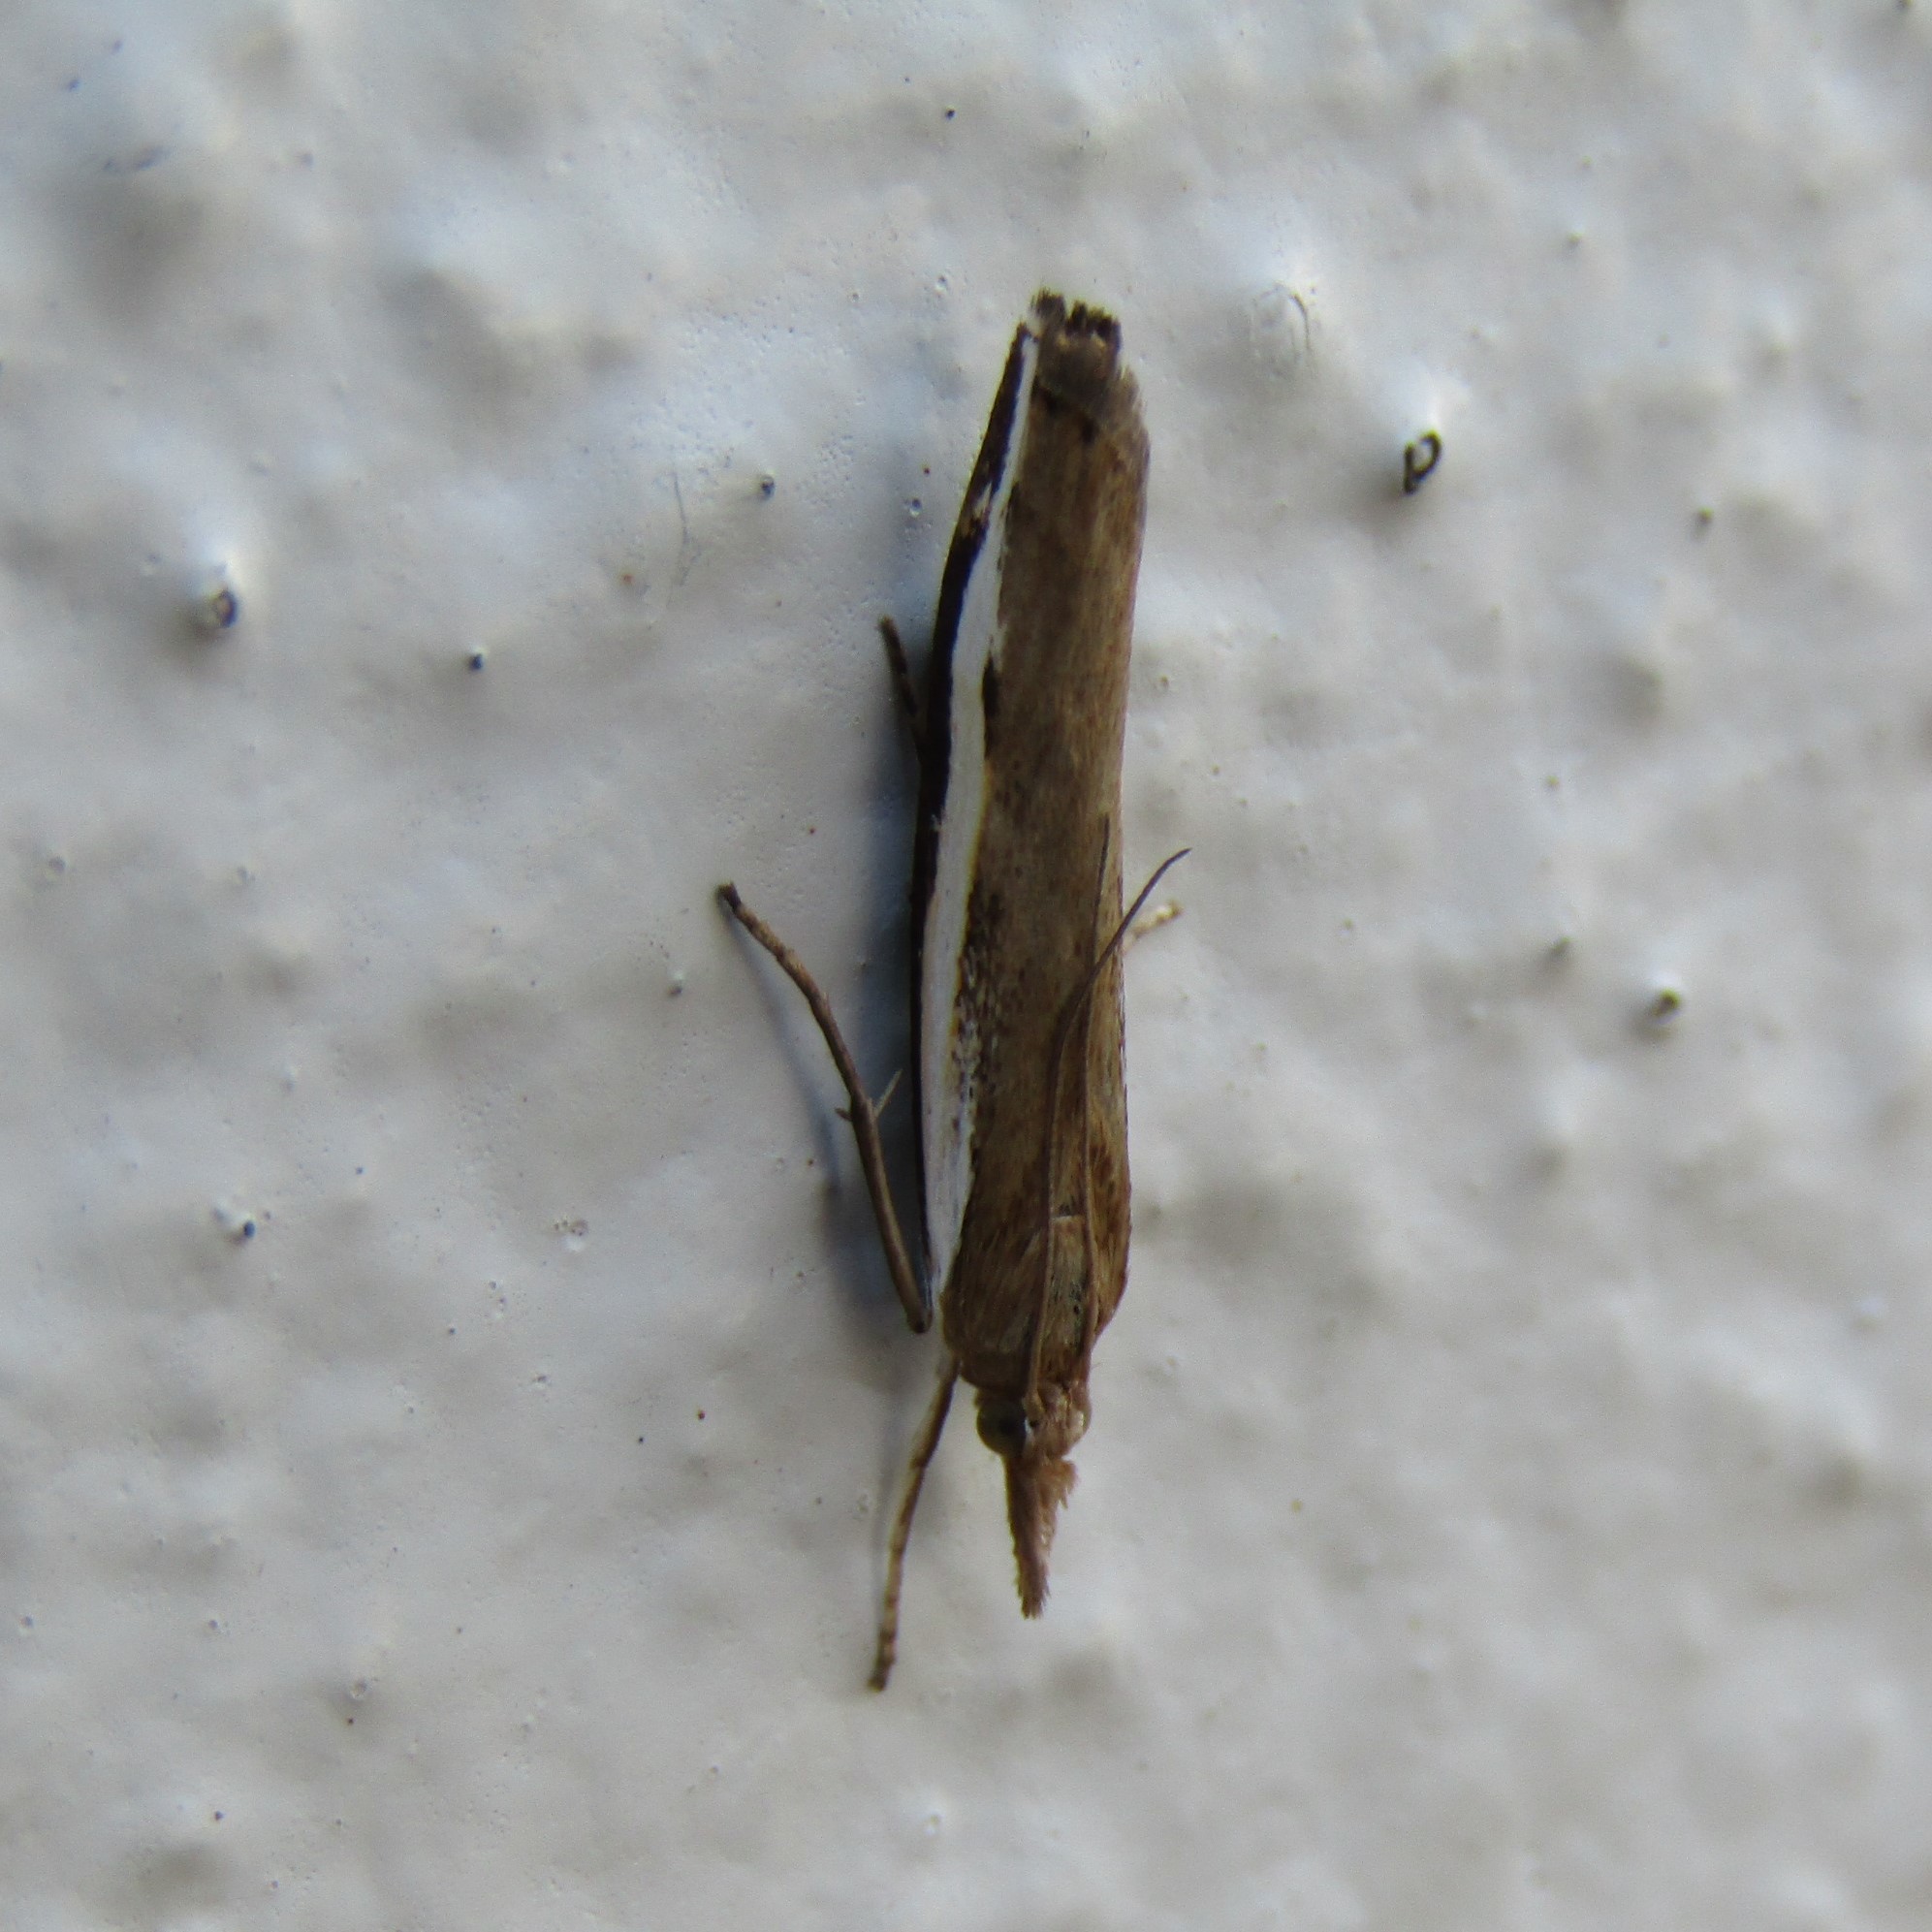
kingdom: Animalia
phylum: Arthropoda
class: Insecta
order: Lepidoptera
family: Crambidae
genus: Orocrambus
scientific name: Orocrambus flexuosellus
